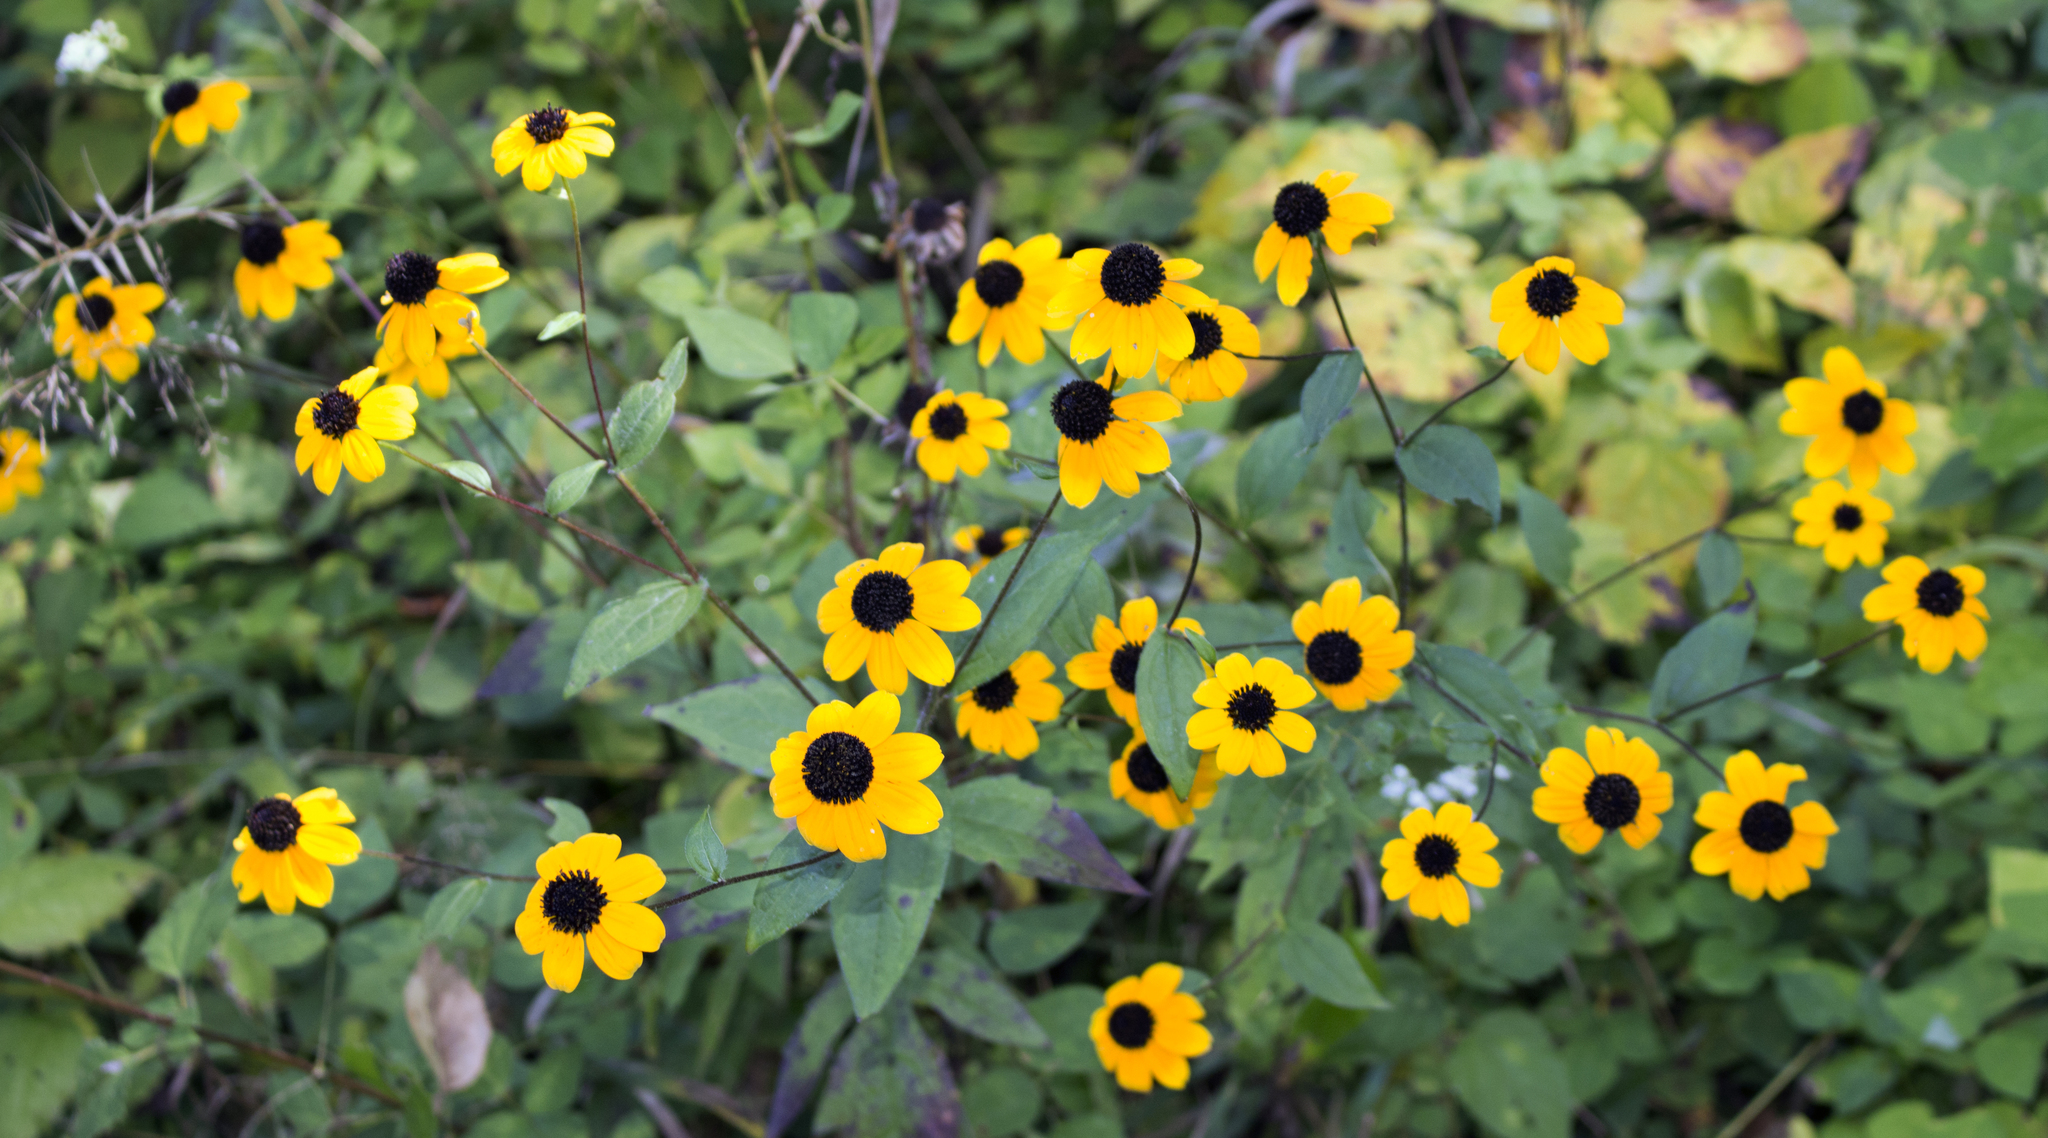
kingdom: Plantae
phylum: Tracheophyta
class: Magnoliopsida
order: Asterales
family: Asteraceae
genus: Rudbeckia
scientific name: Rudbeckia triloba
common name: Thin-leaved coneflower
